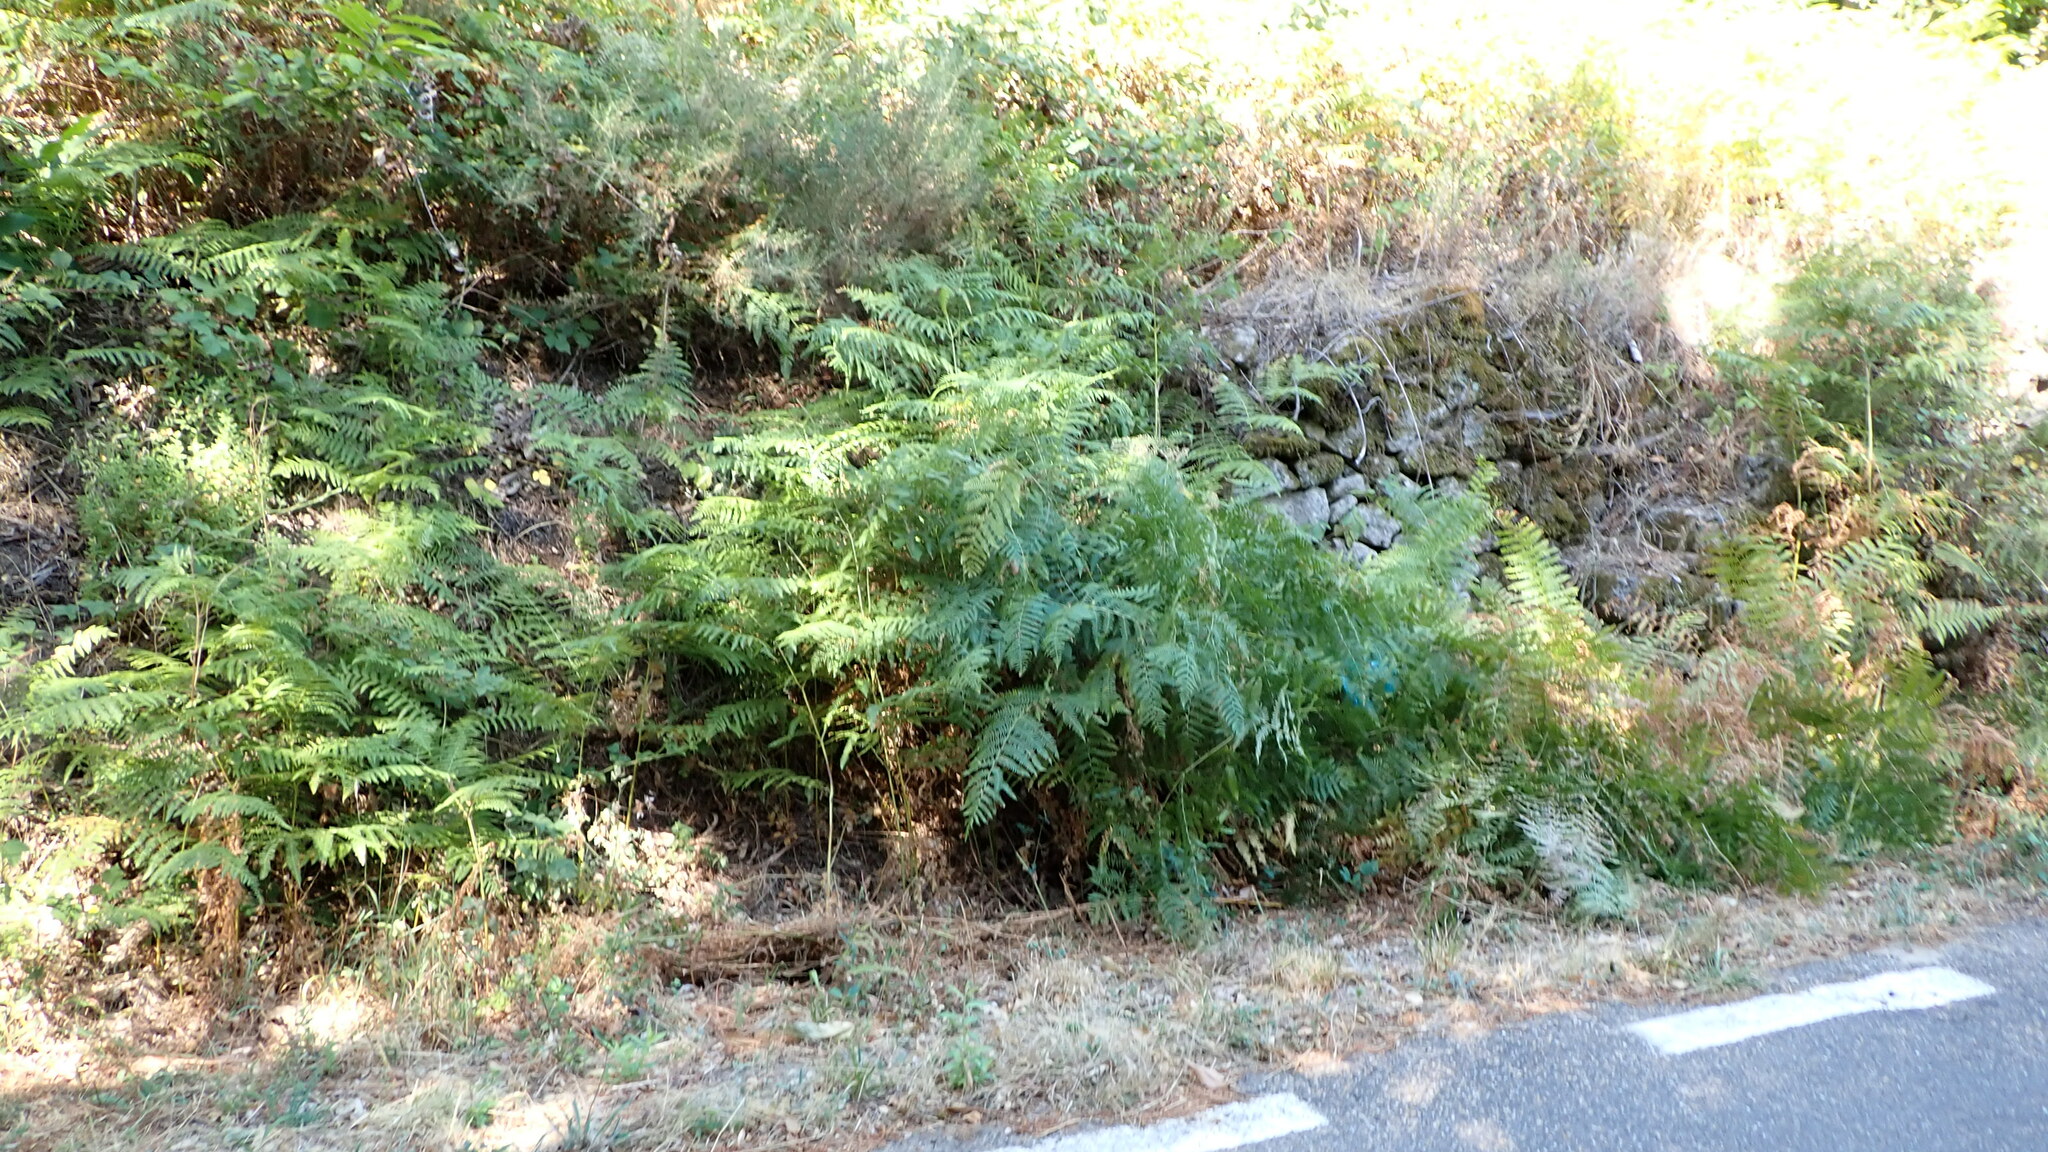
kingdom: Plantae
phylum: Tracheophyta
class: Polypodiopsida
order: Polypodiales
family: Dennstaedtiaceae
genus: Pteridium
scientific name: Pteridium aquilinum
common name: Bracken
